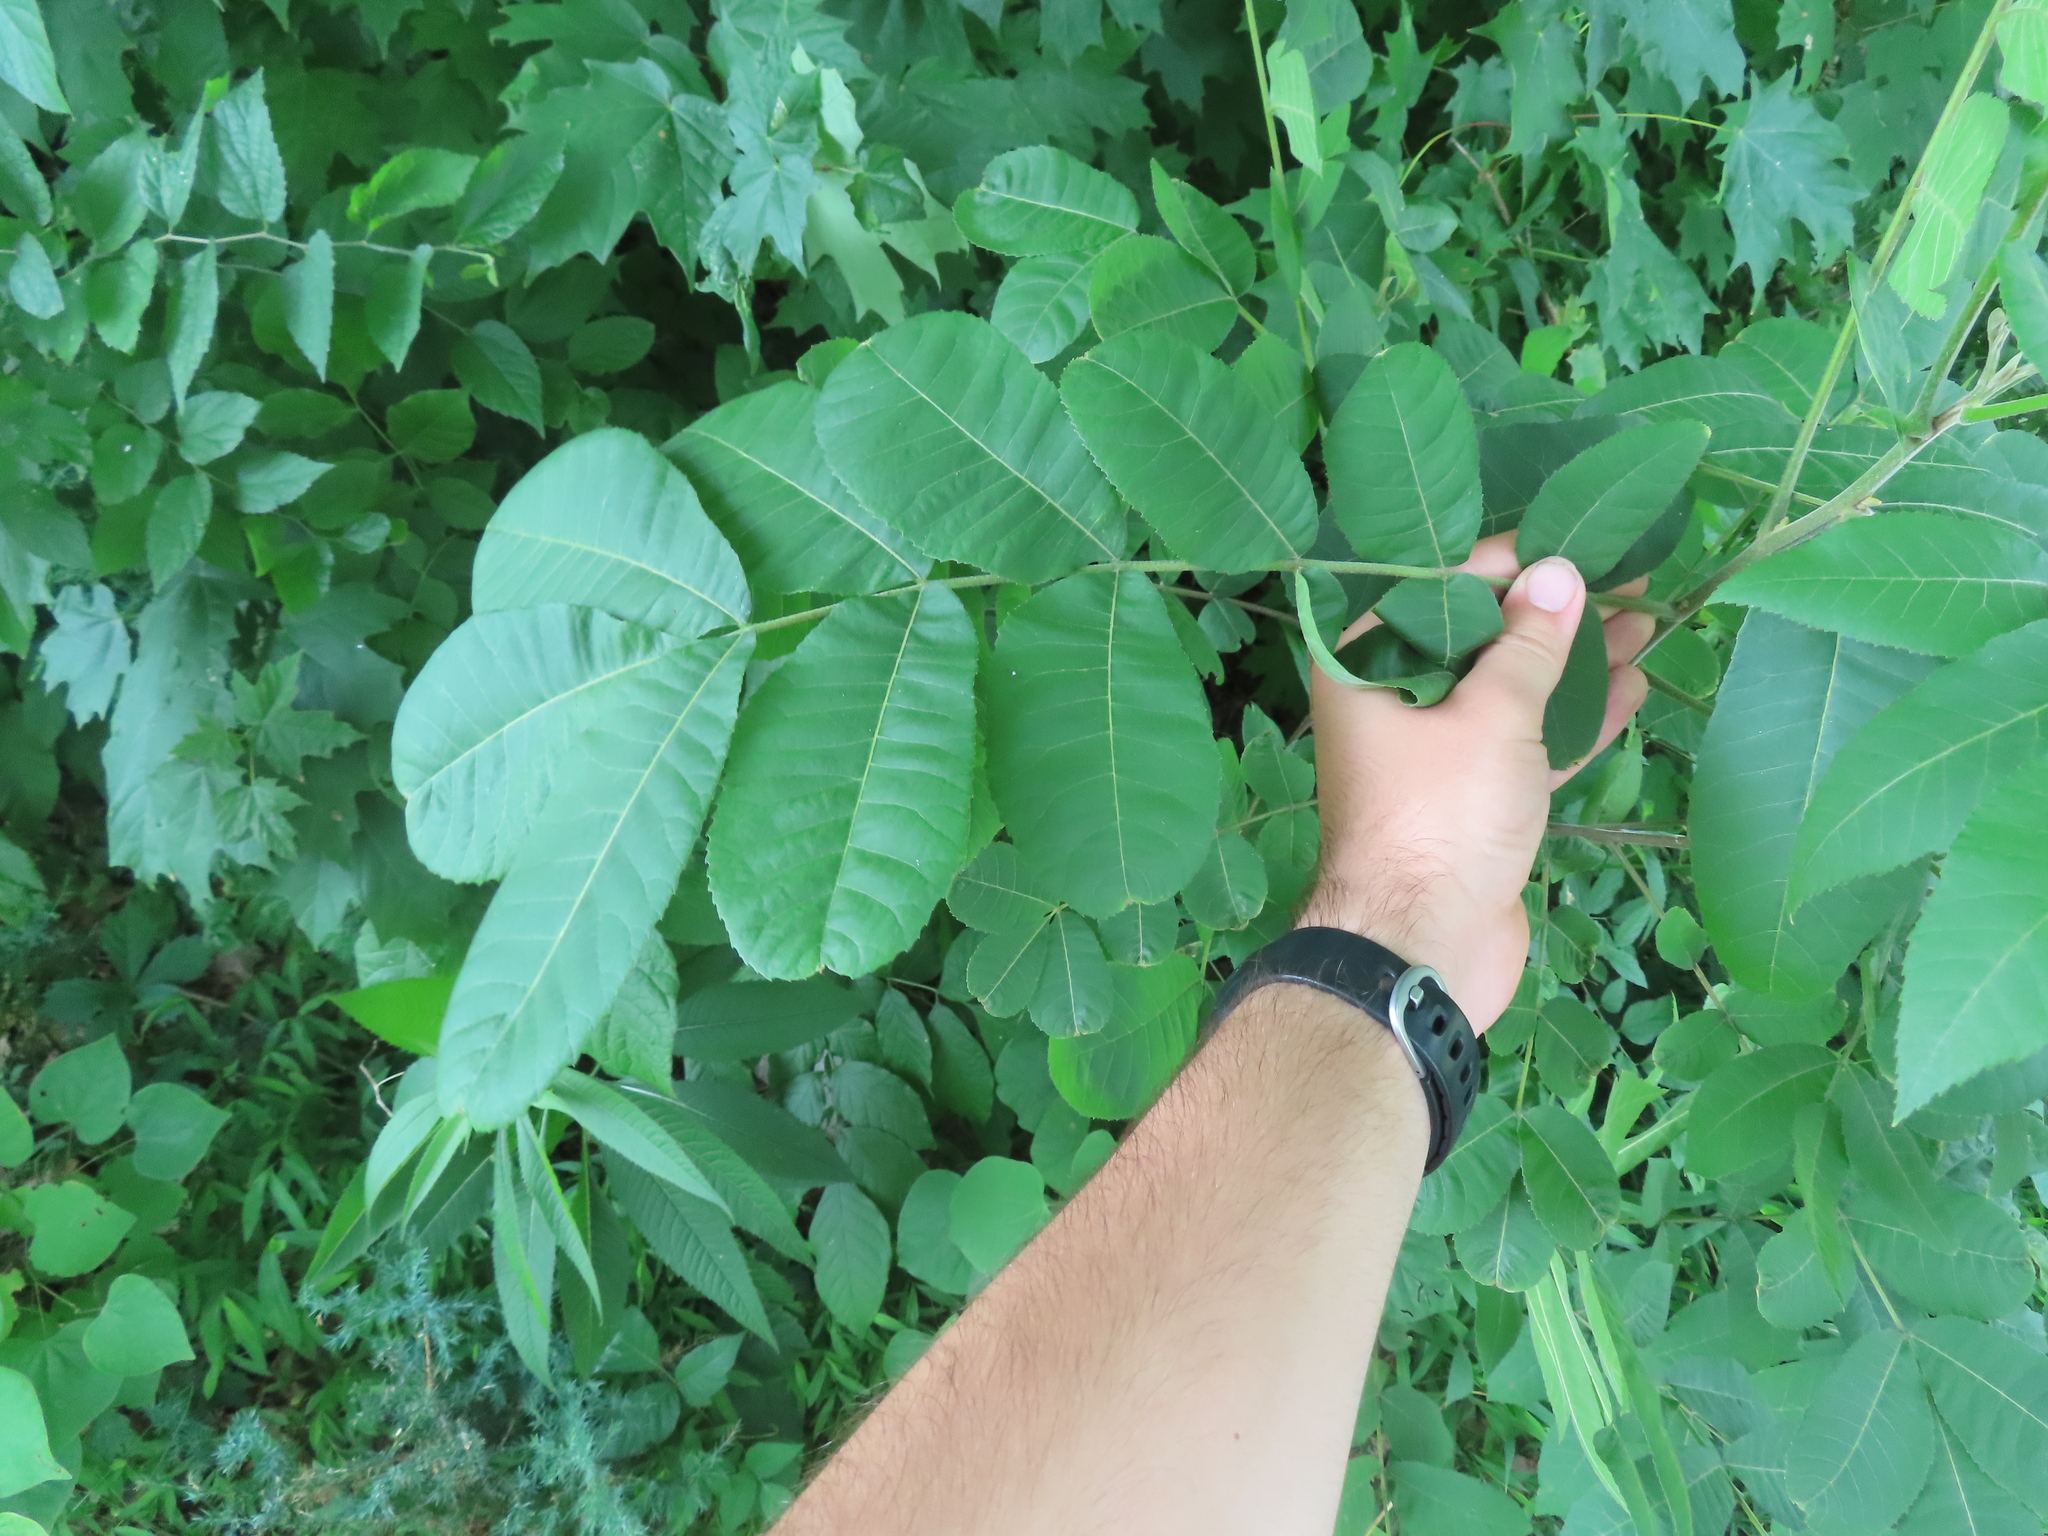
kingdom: Plantae
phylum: Tracheophyta
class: Magnoliopsida
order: Fagales
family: Juglandaceae
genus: Carya
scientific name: Carya illinoinensis
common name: Pecan
